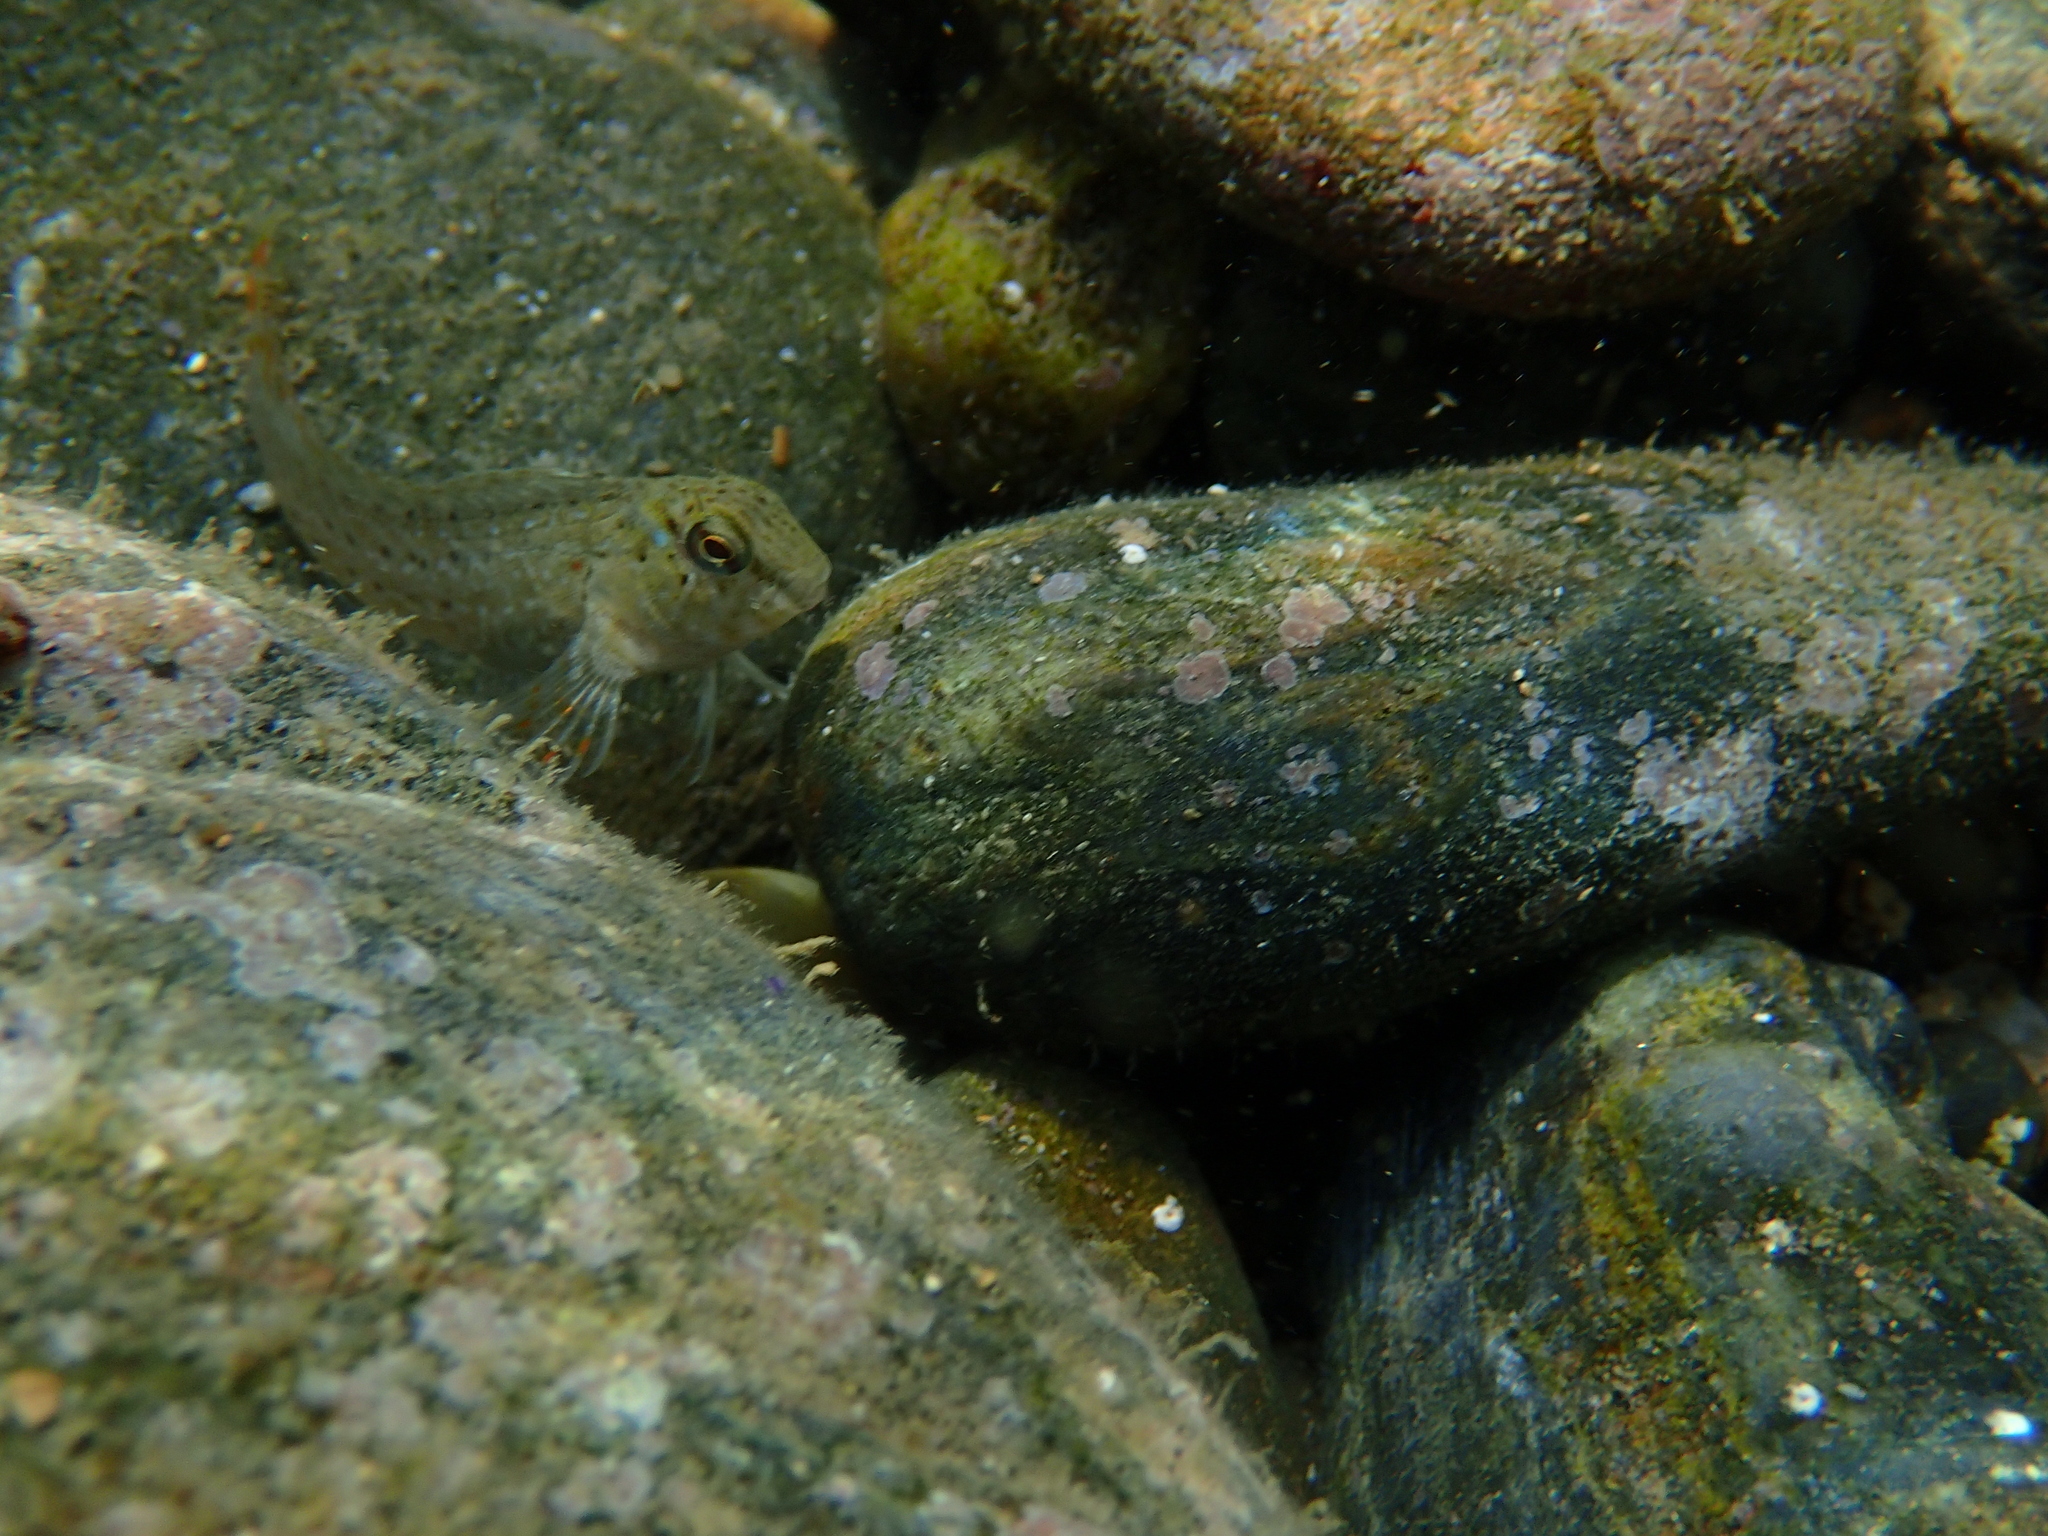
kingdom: Animalia
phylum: Chordata
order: Perciformes
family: Blenniidae
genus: Parablennius
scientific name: Parablennius sanguinolentus
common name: Black sea blenny
